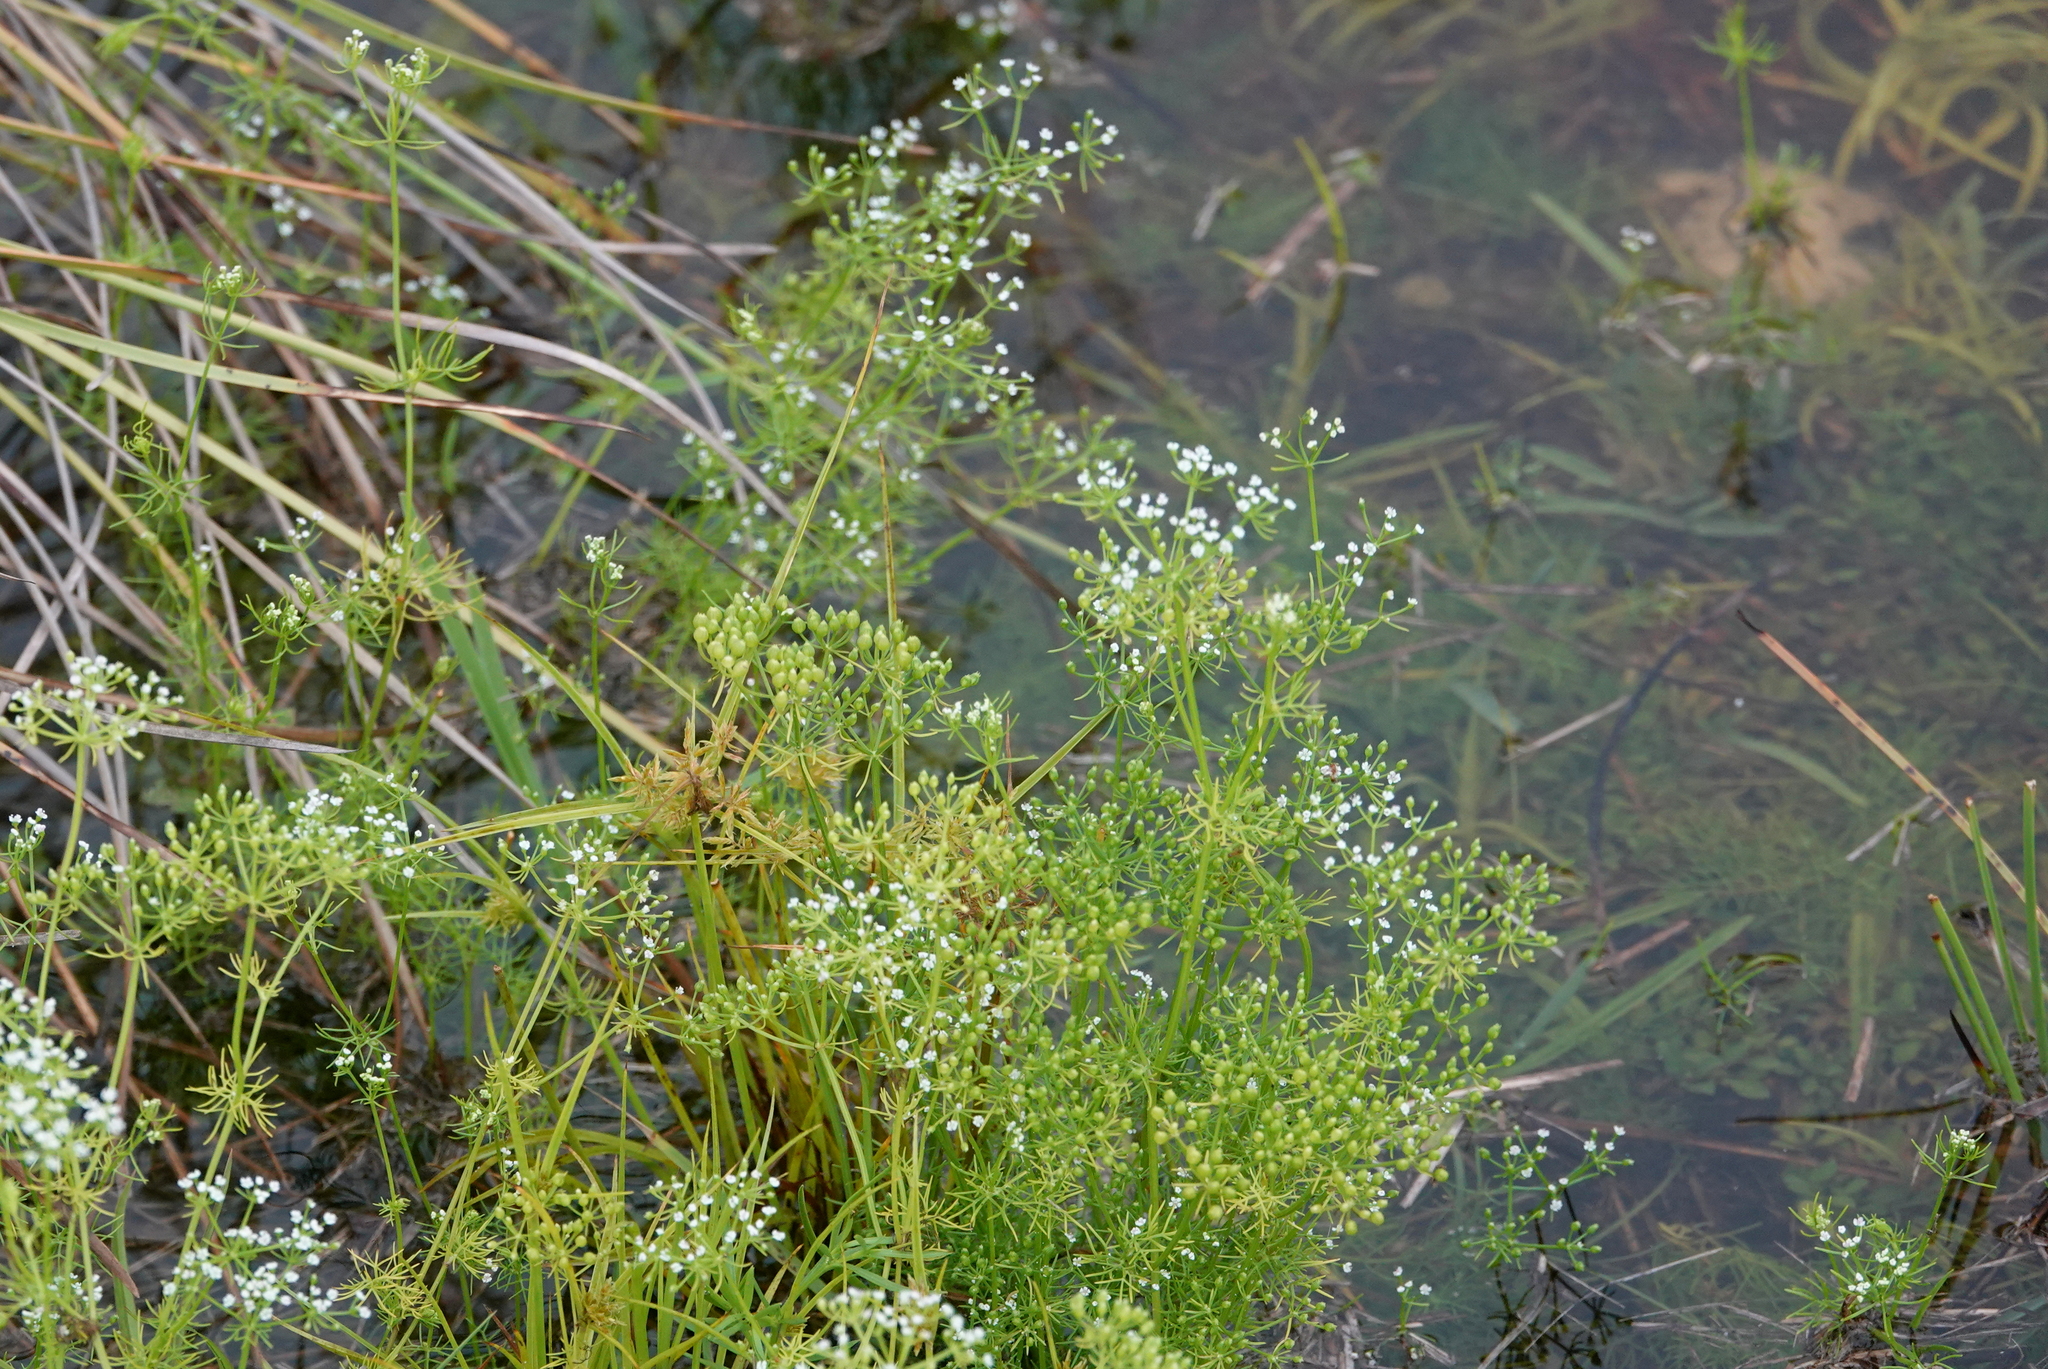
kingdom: Plantae
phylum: Tracheophyta
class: Magnoliopsida
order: Apiales
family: Apiaceae
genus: Ptilimnium
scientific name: Ptilimnium capillaceum
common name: Herbwilliam
